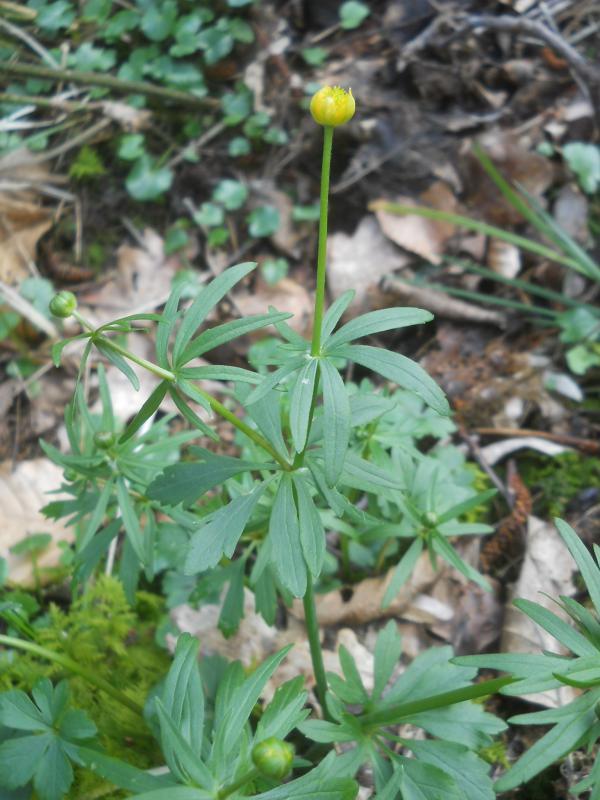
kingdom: Plantae
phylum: Tracheophyta
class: Magnoliopsida
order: Ranunculales
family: Ranunculaceae
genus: Ranunculus
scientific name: Ranunculus auricomus
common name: Goldilocks buttercup
